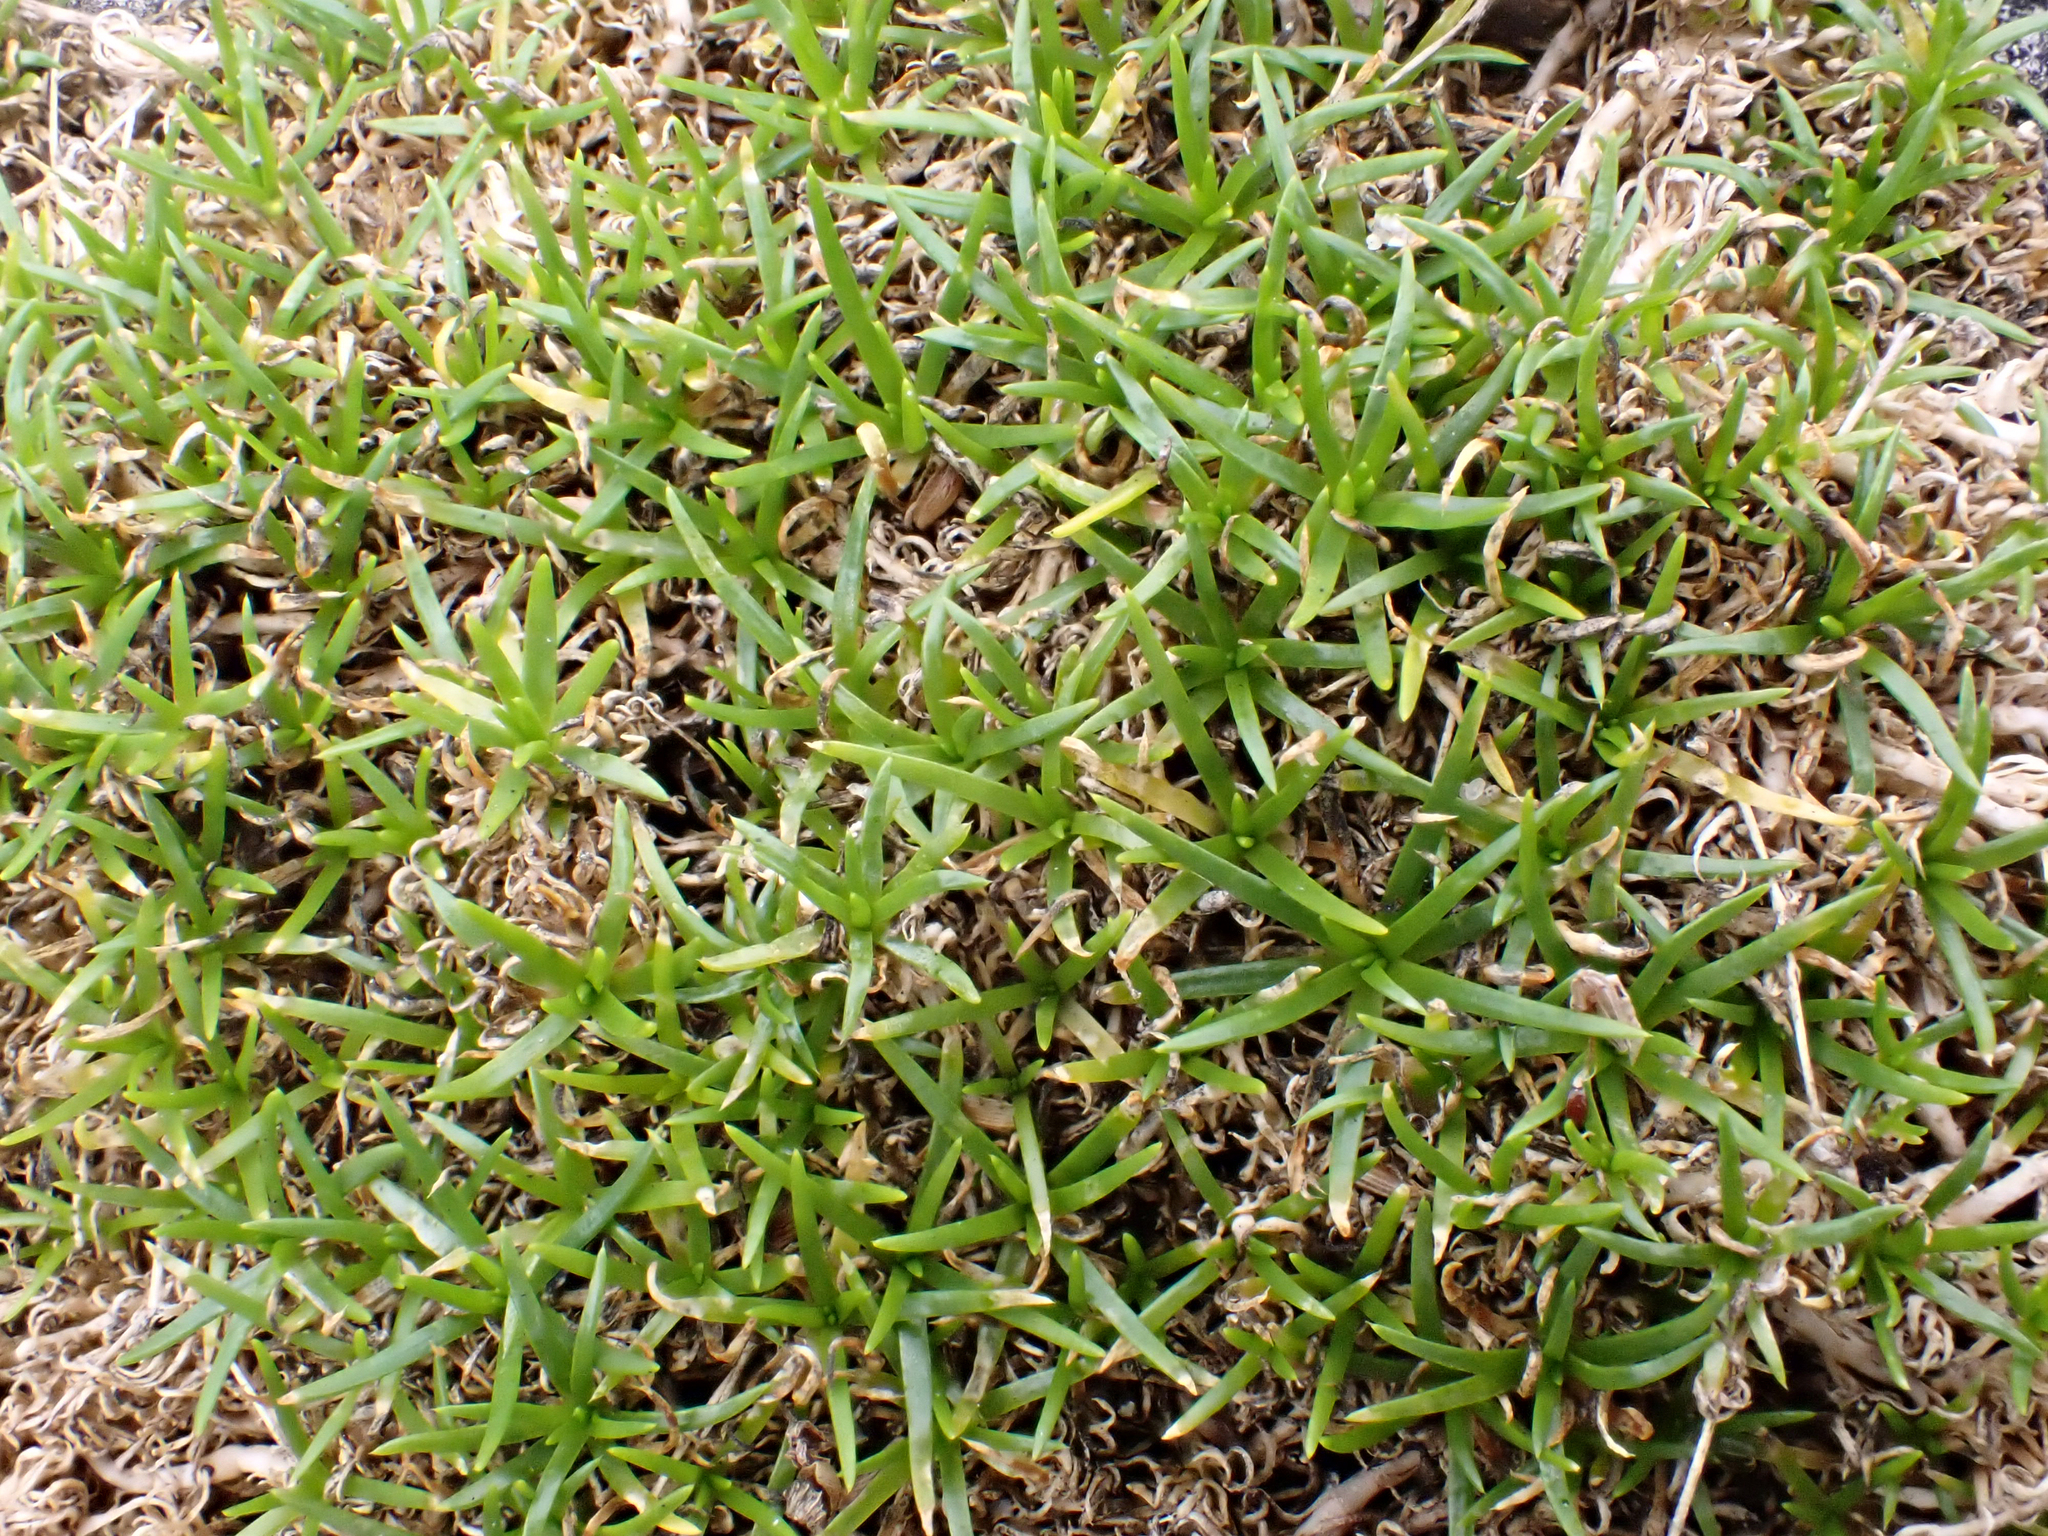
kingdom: Plantae
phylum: Tracheophyta
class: Magnoliopsida
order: Caryophyllales
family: Caryophyllaceae
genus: Sagina
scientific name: Sagina procumbens
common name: Procumbent pearlwort
